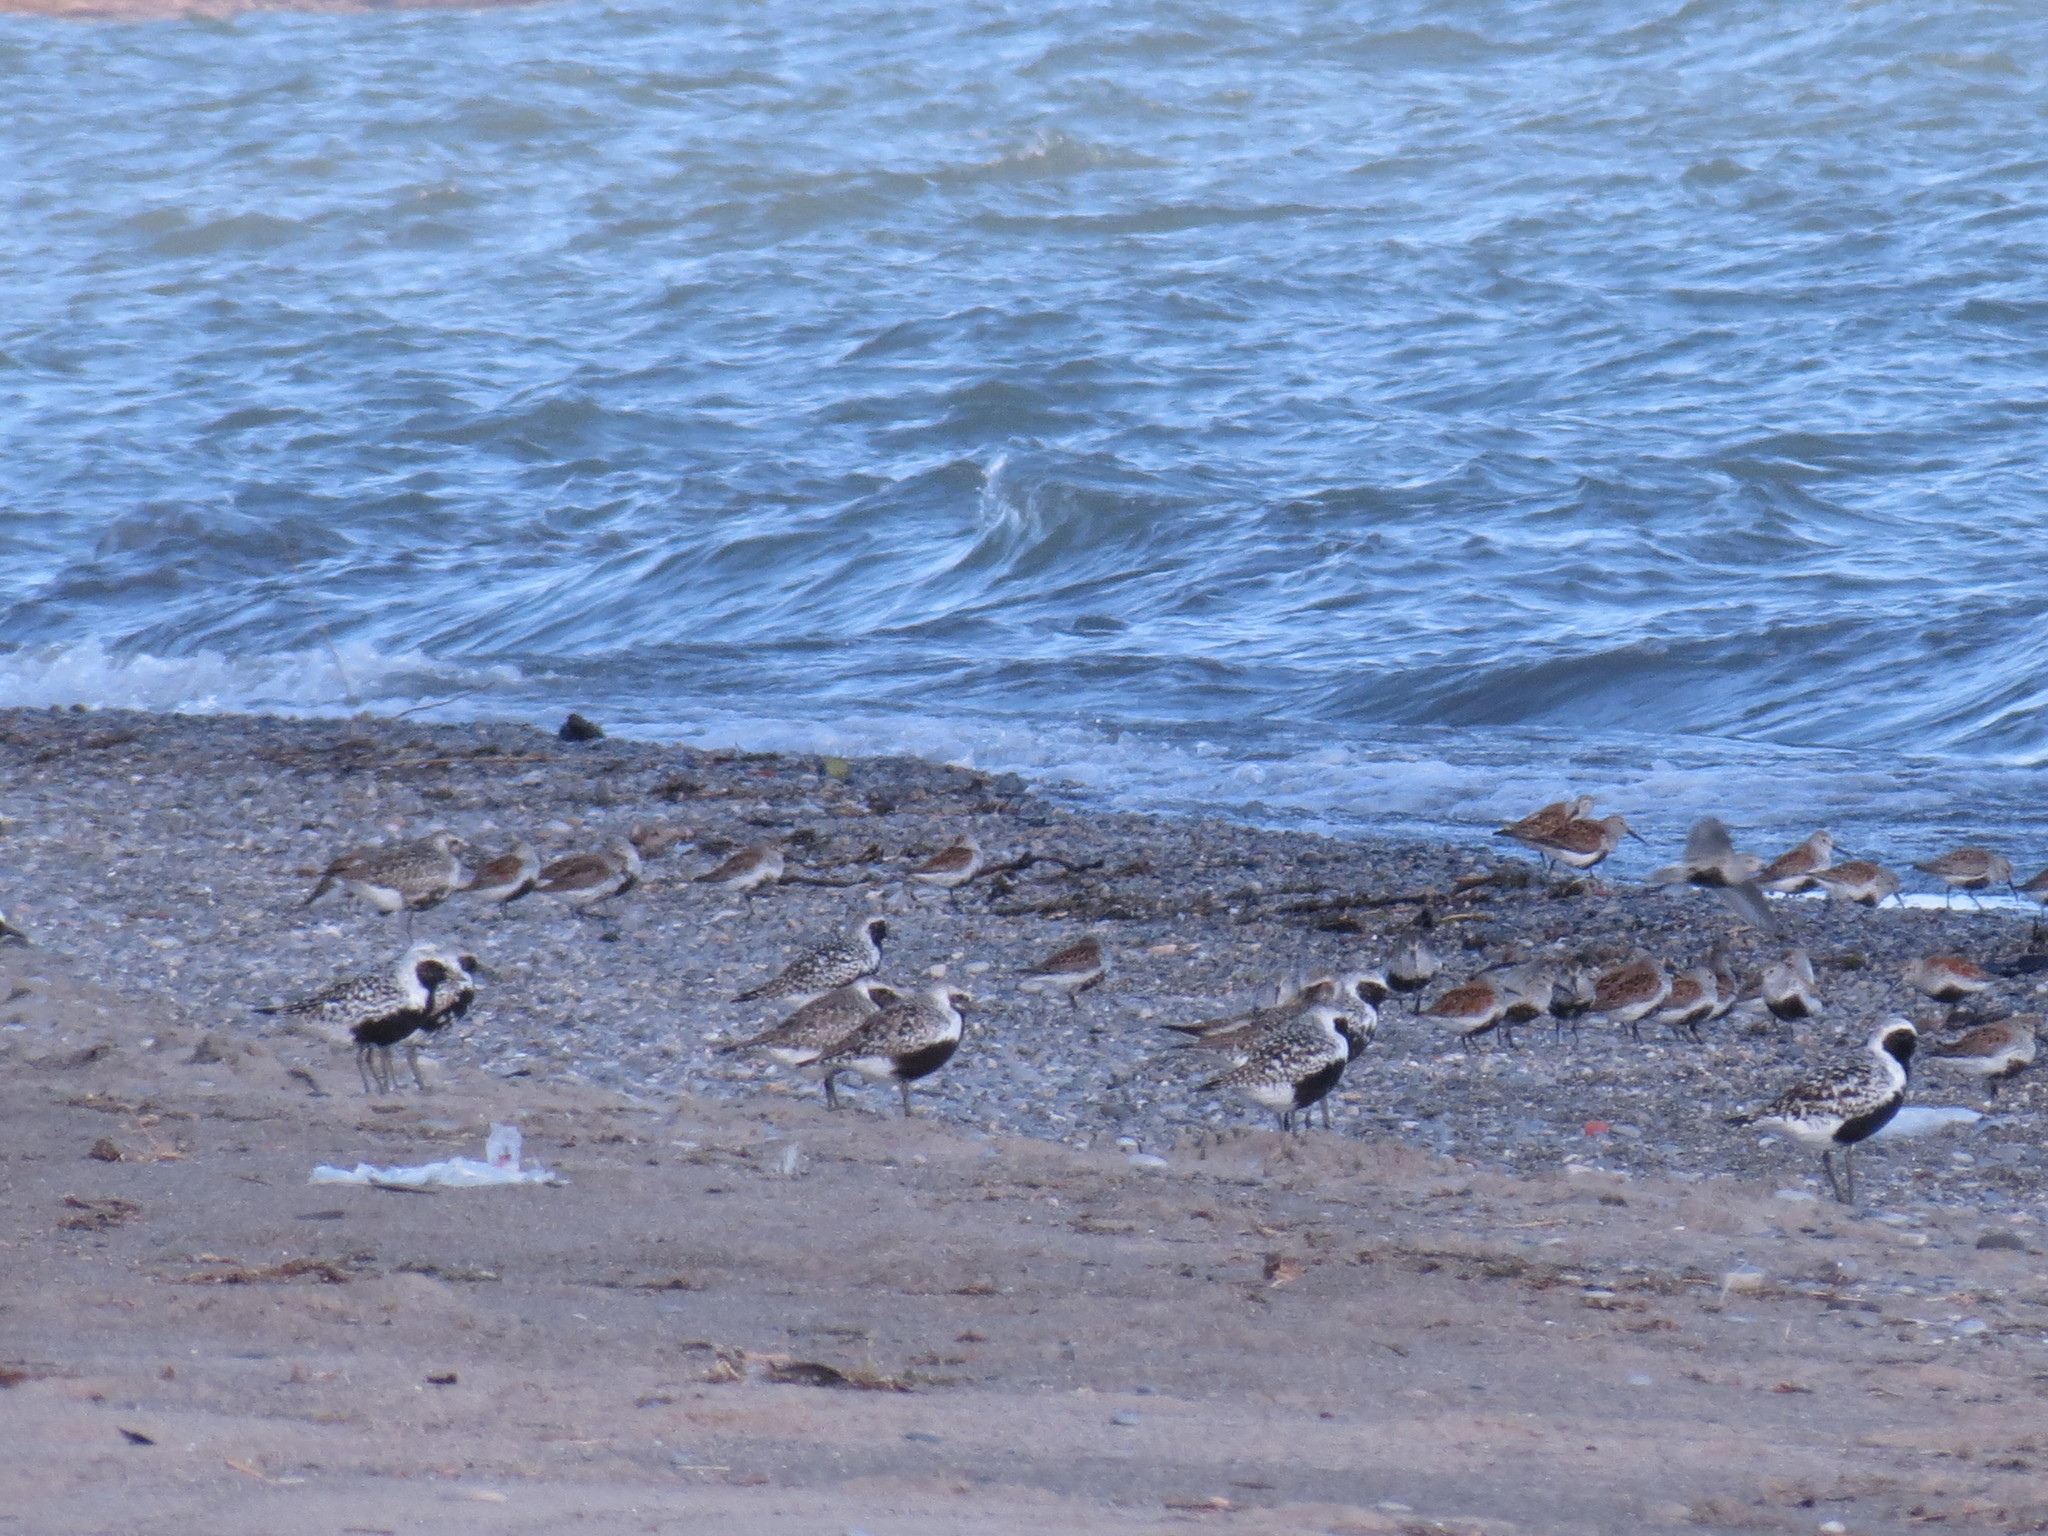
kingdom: Animalia
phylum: Chordata
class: Aves
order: Charadriiformes
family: Scolopacidae
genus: Calidris
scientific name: Calidris alpina
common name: Dunlin
